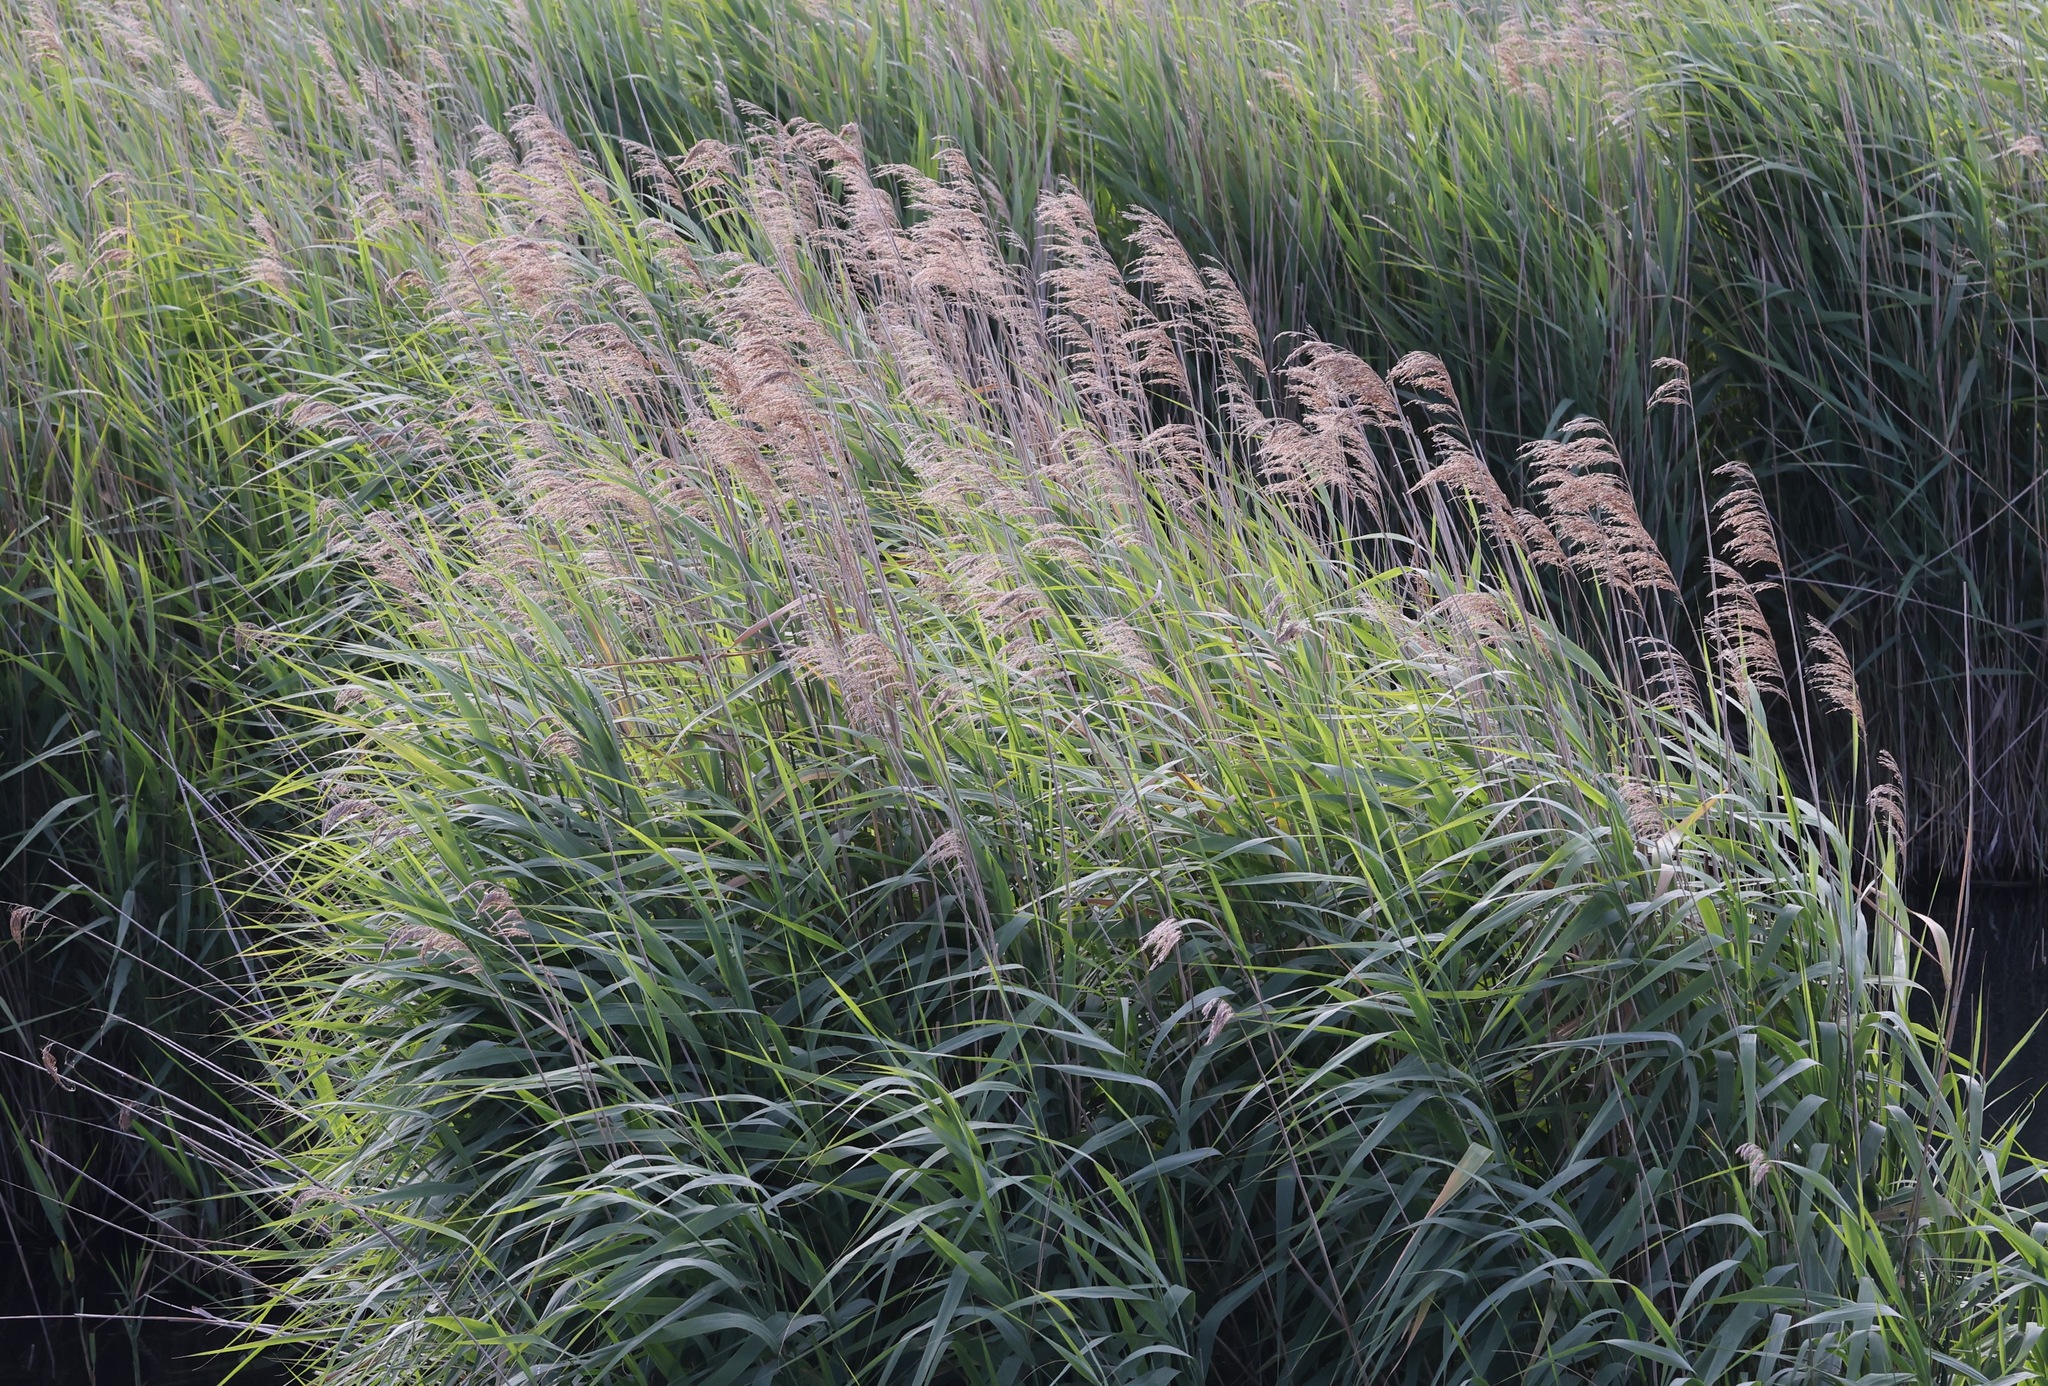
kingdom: Plantae
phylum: Tracheophyta
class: Liliopsida
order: Poales
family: Poaceae
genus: Phragmites
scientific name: Phragmites australis
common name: Common reed
